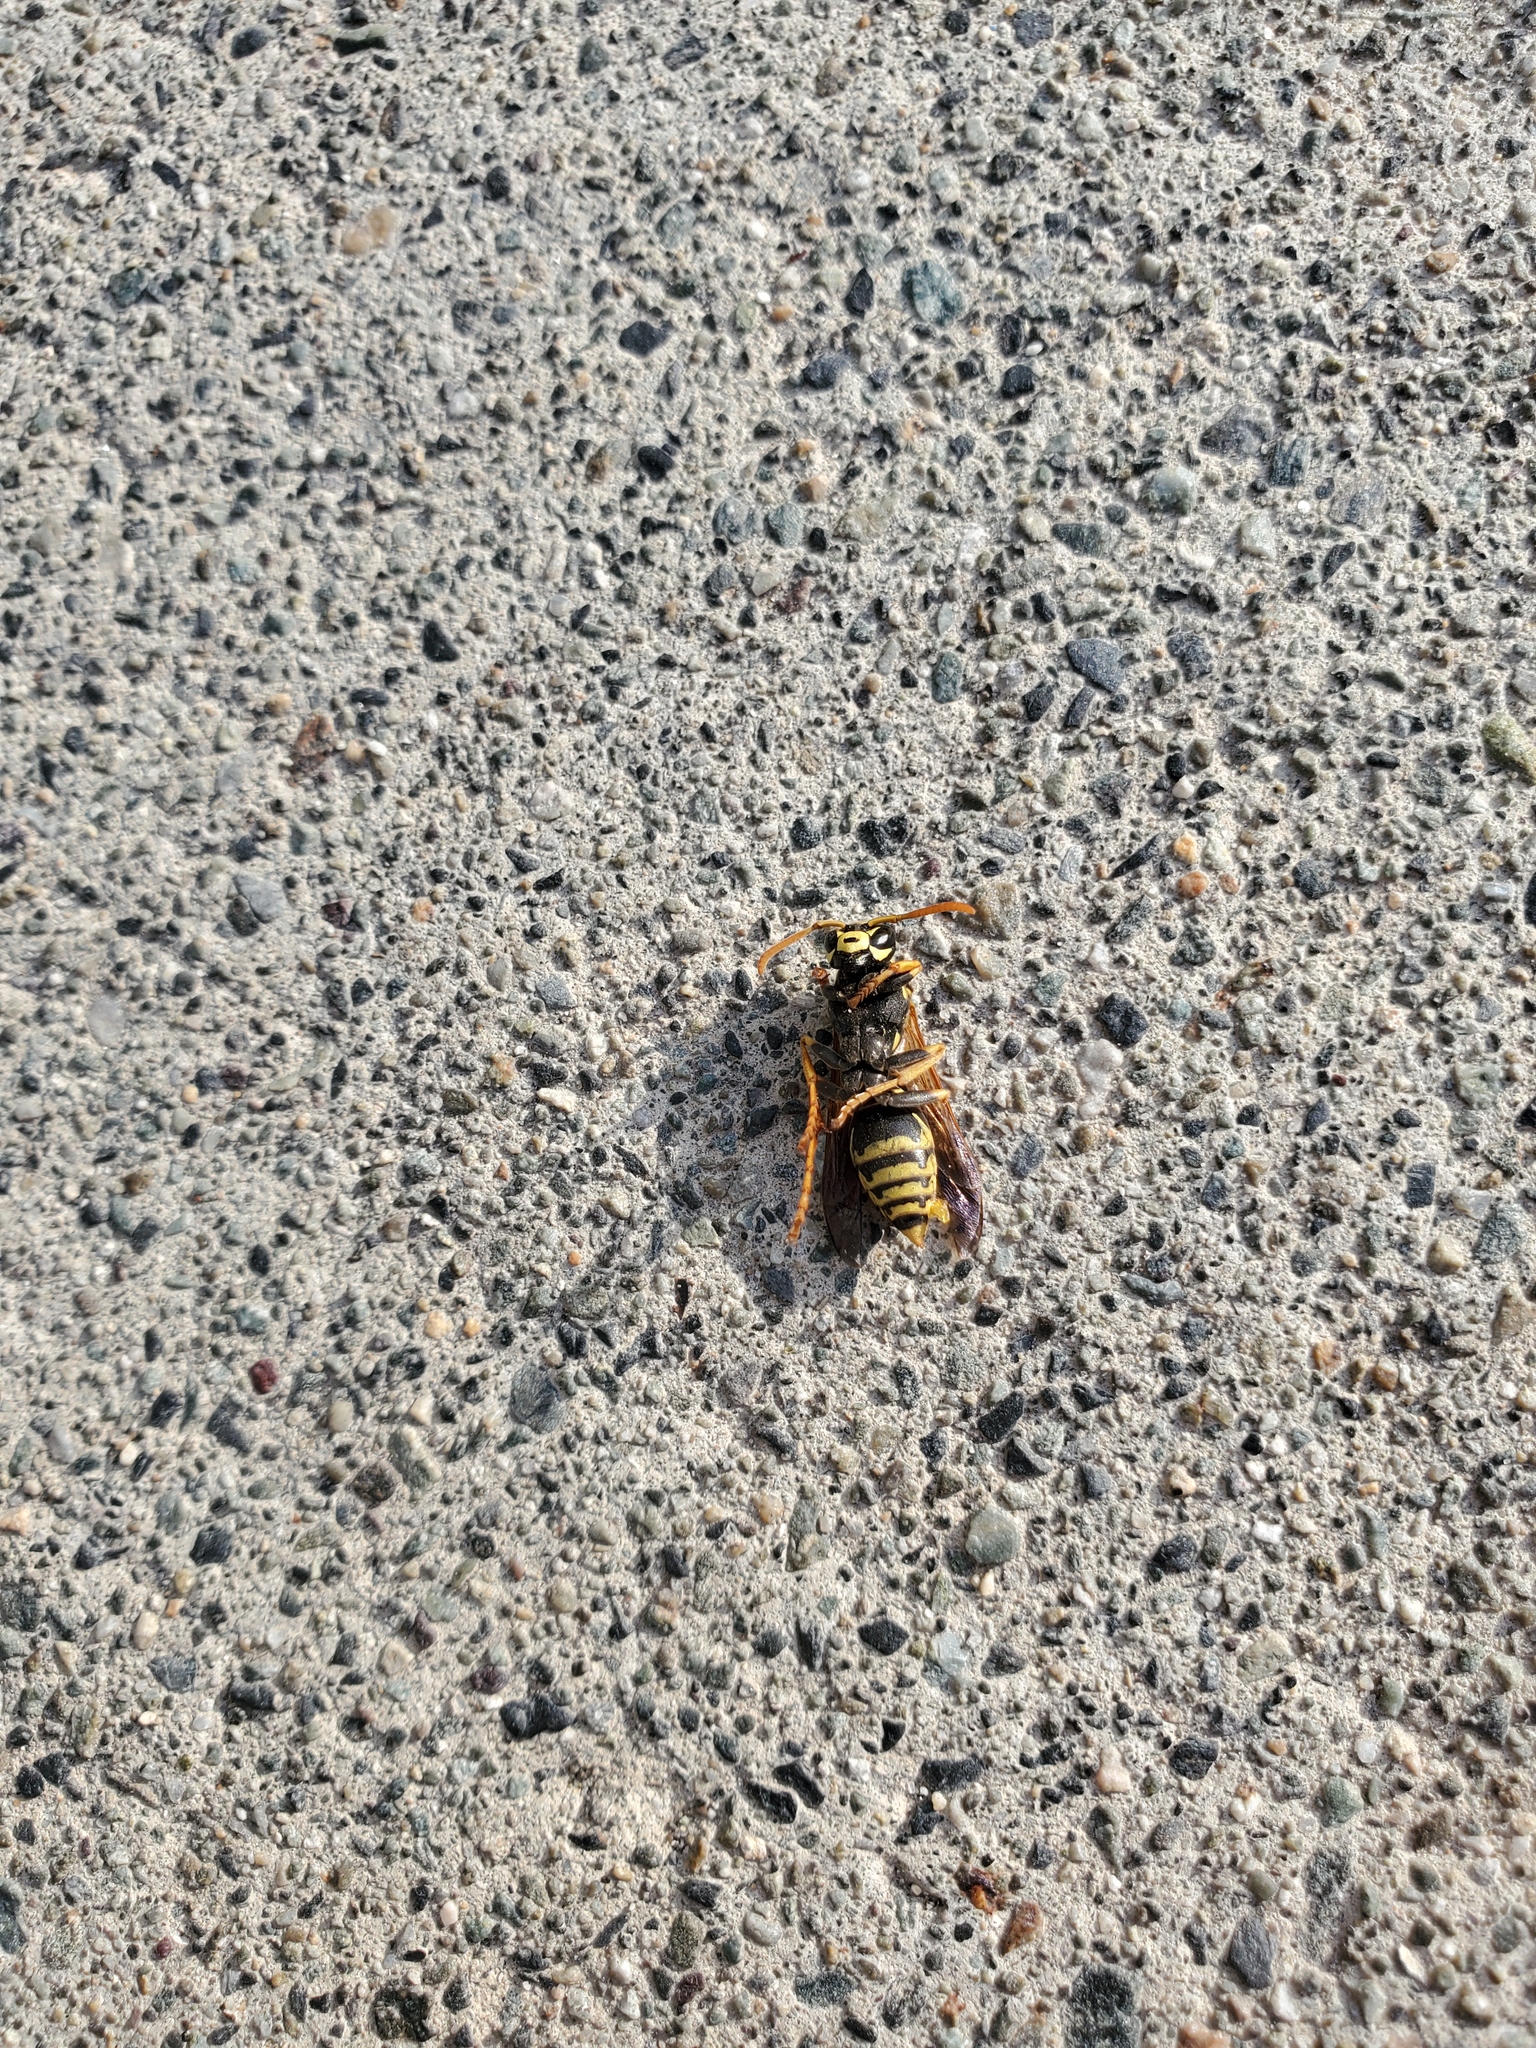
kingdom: Animalia
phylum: Arthropoda
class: Insecta
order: Hymenoptera
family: Eumenidae
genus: Polistes
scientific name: Polistes dominula
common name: Paper wasp
